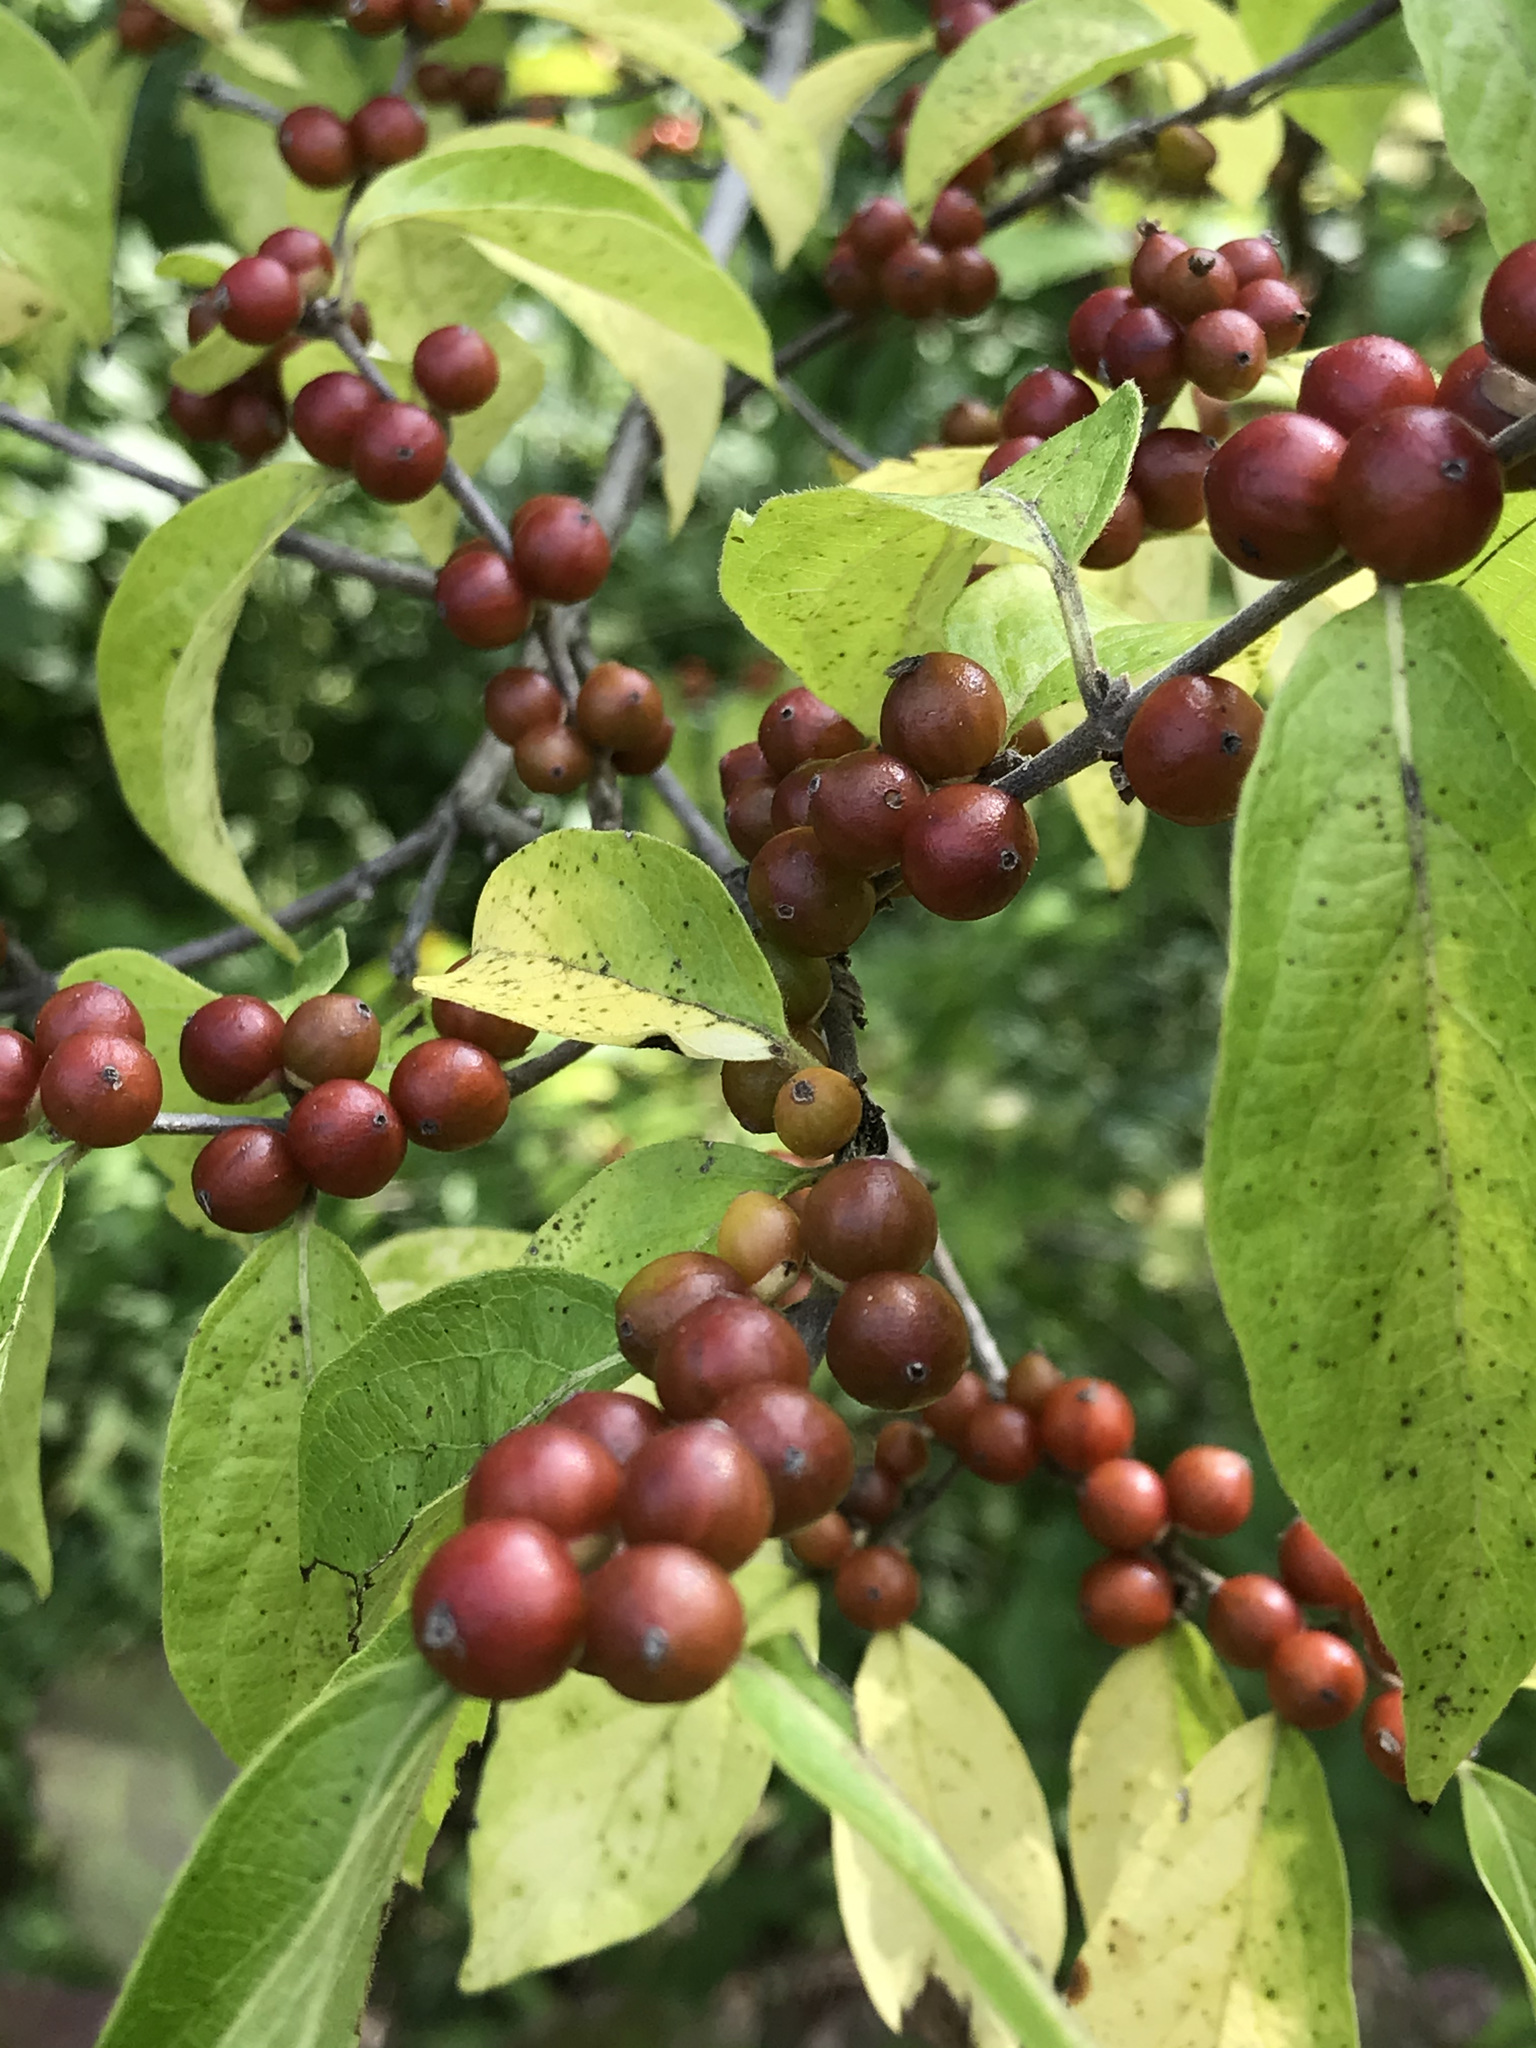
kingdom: Plantae
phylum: Tracheophyta
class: Magnoliopsida
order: Dipsacales
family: Caprifoliaceae
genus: Lonicera
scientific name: Lonicera maackii
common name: Amur honeysuckle
